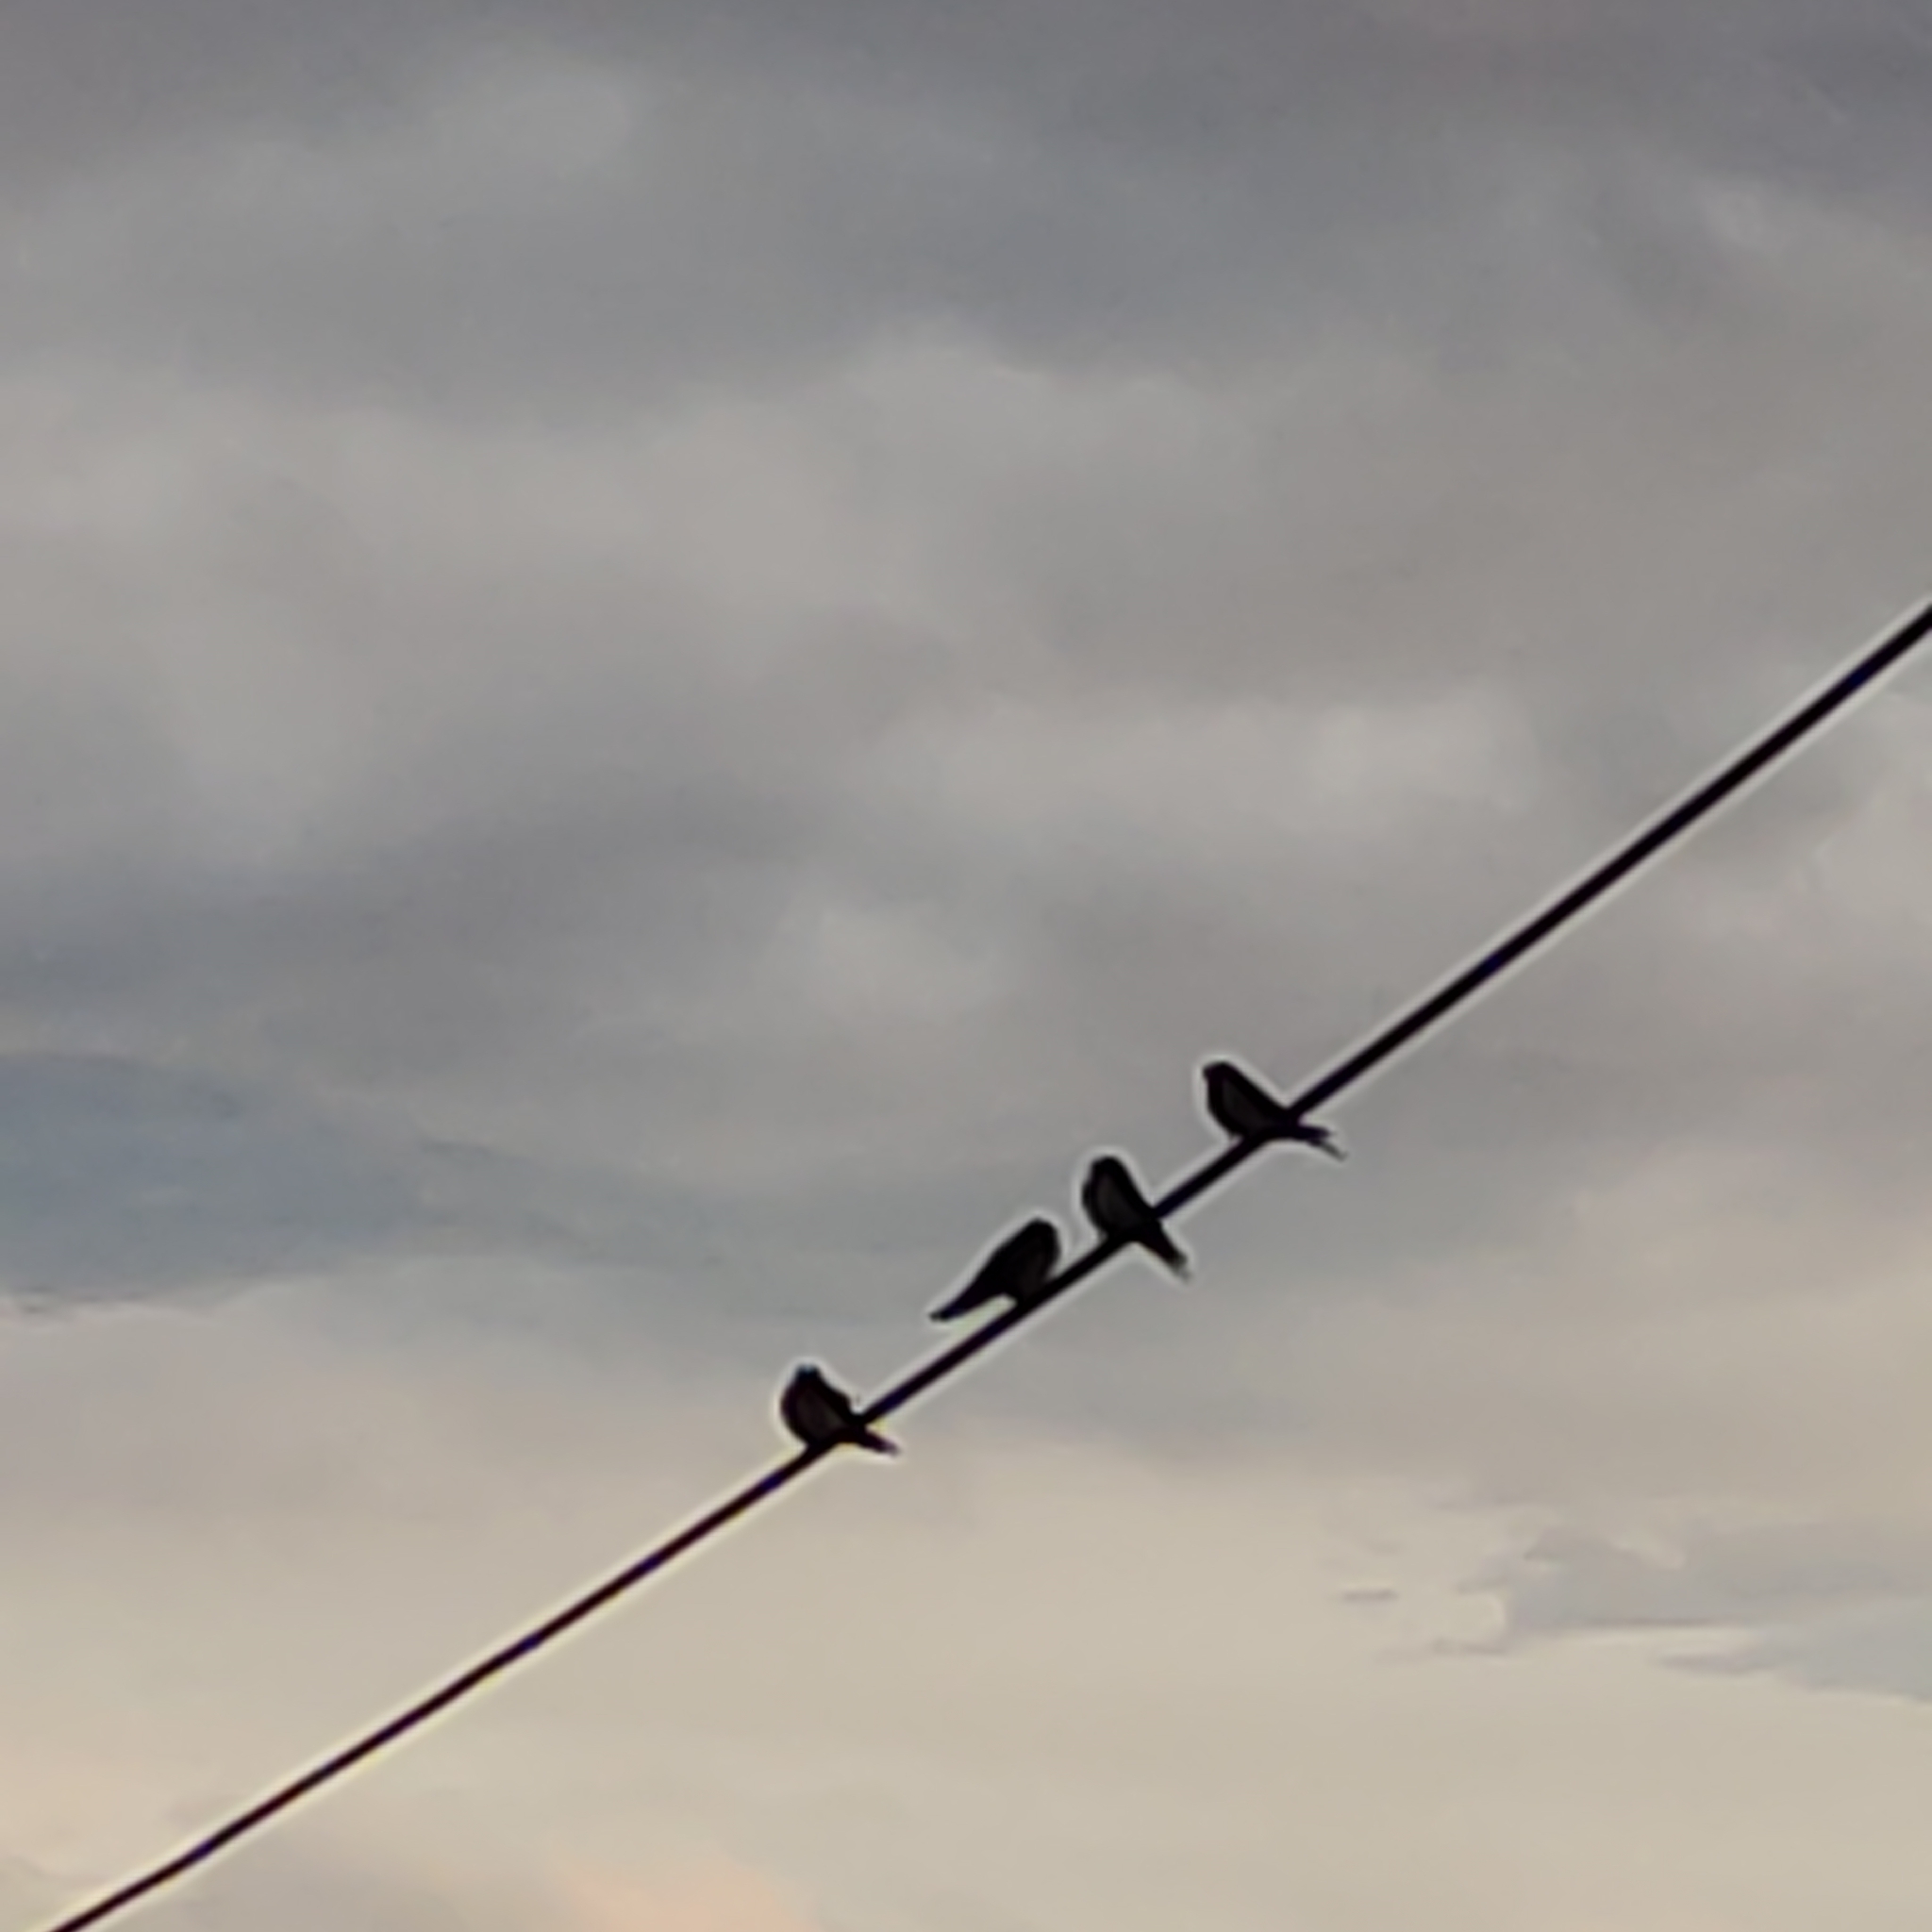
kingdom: Animalia
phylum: Chordata
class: Aves
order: Passeriformes
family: Hirundinidae
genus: Hirundo
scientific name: Hirundo neoxena
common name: Welcome swallow
